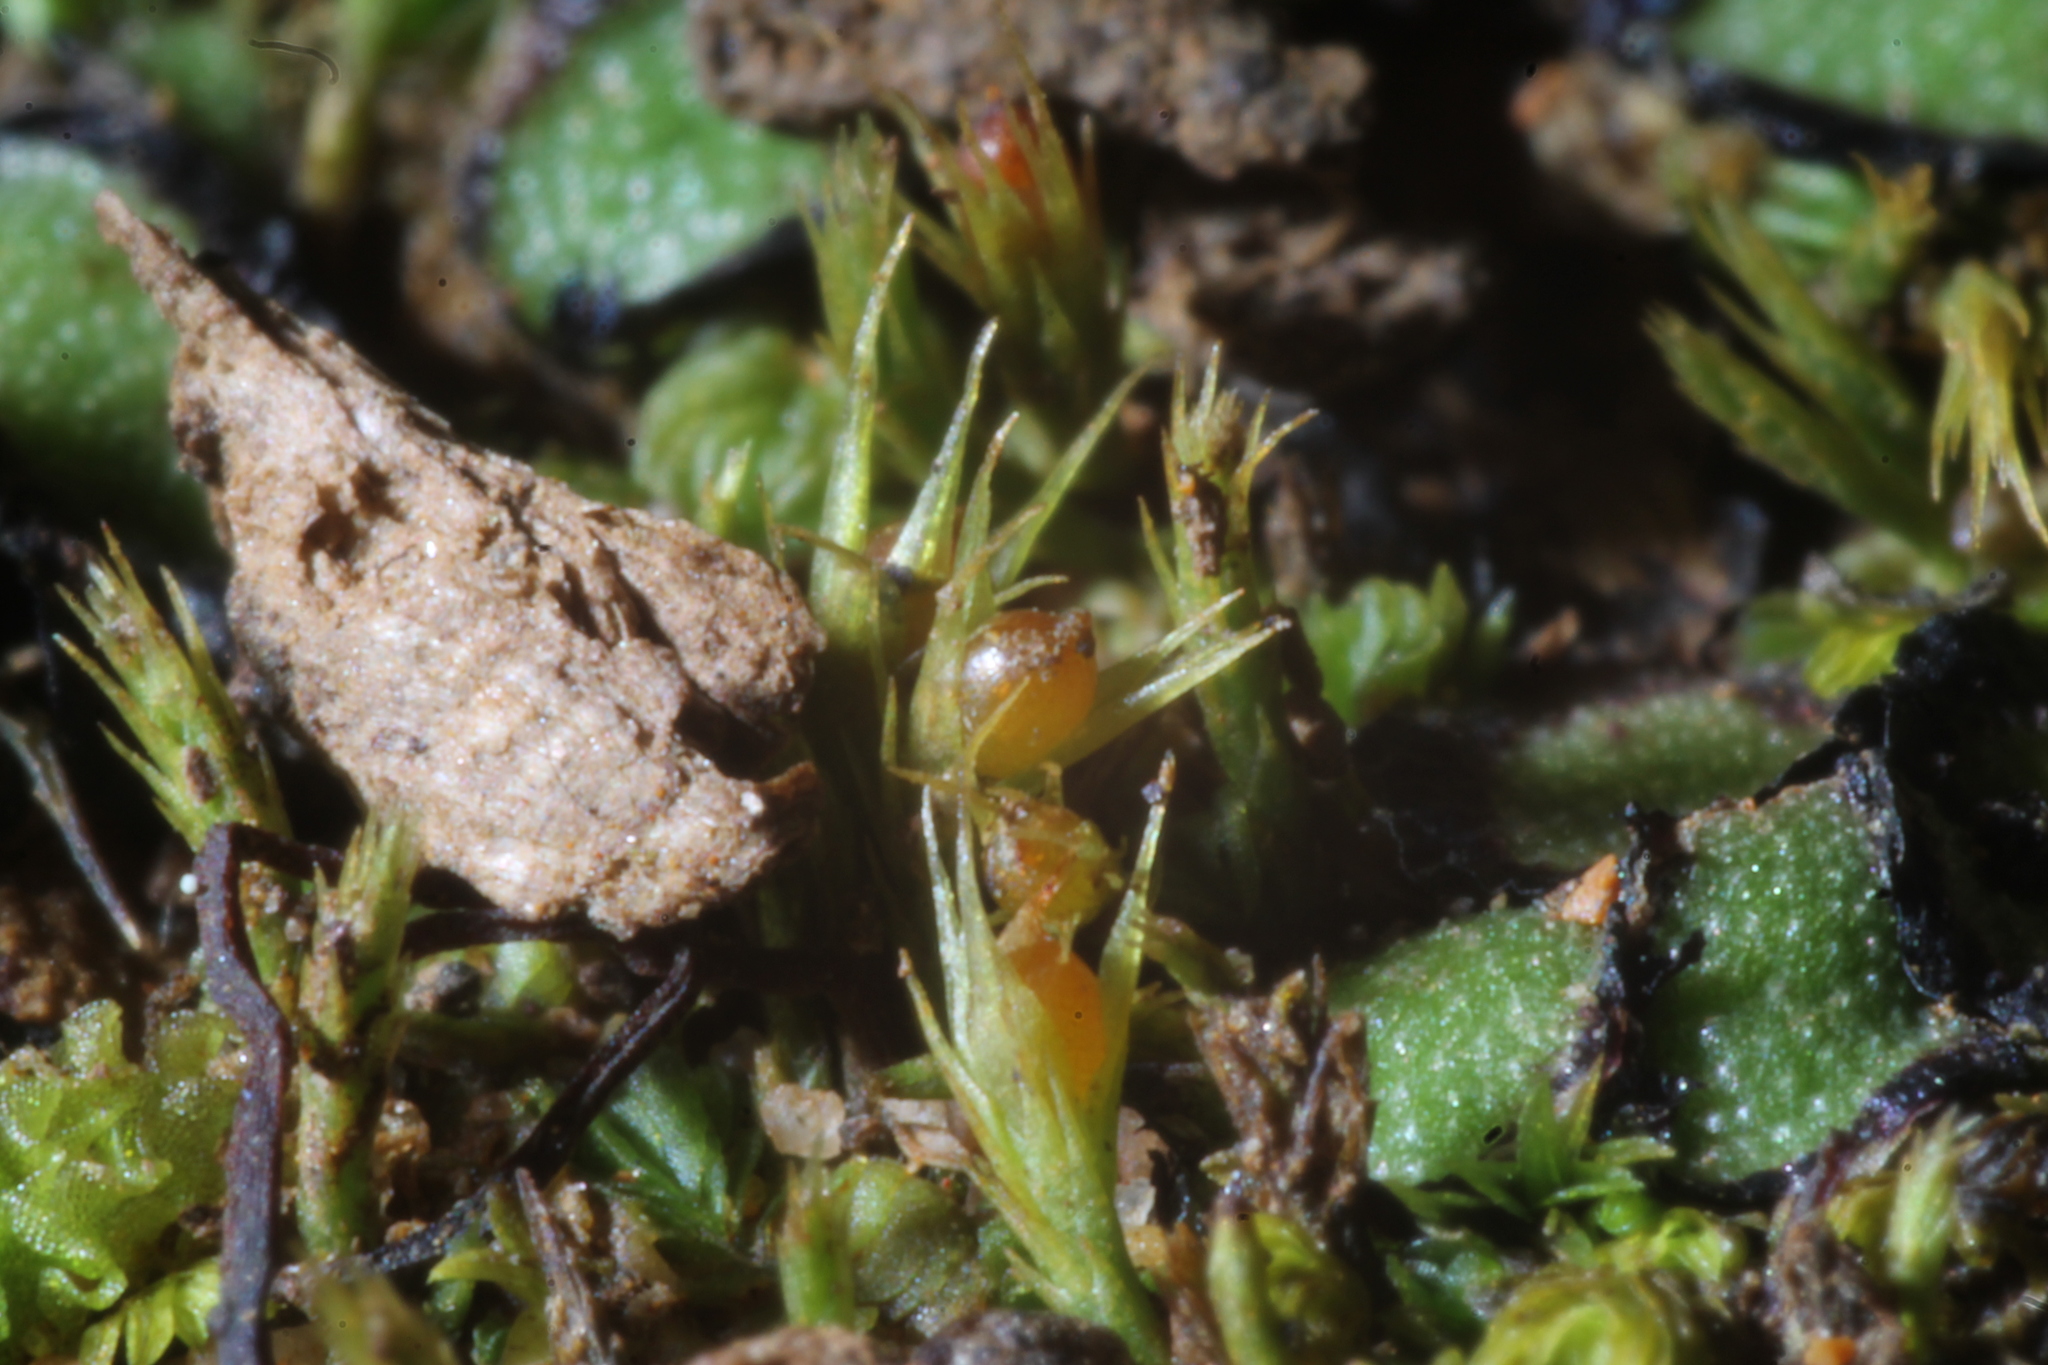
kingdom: Plantae
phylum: Bryophyta
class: Bryopsida
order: Dicranales
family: Ditrichaceae
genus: Pleuridium
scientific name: Pleuridium nervosum
